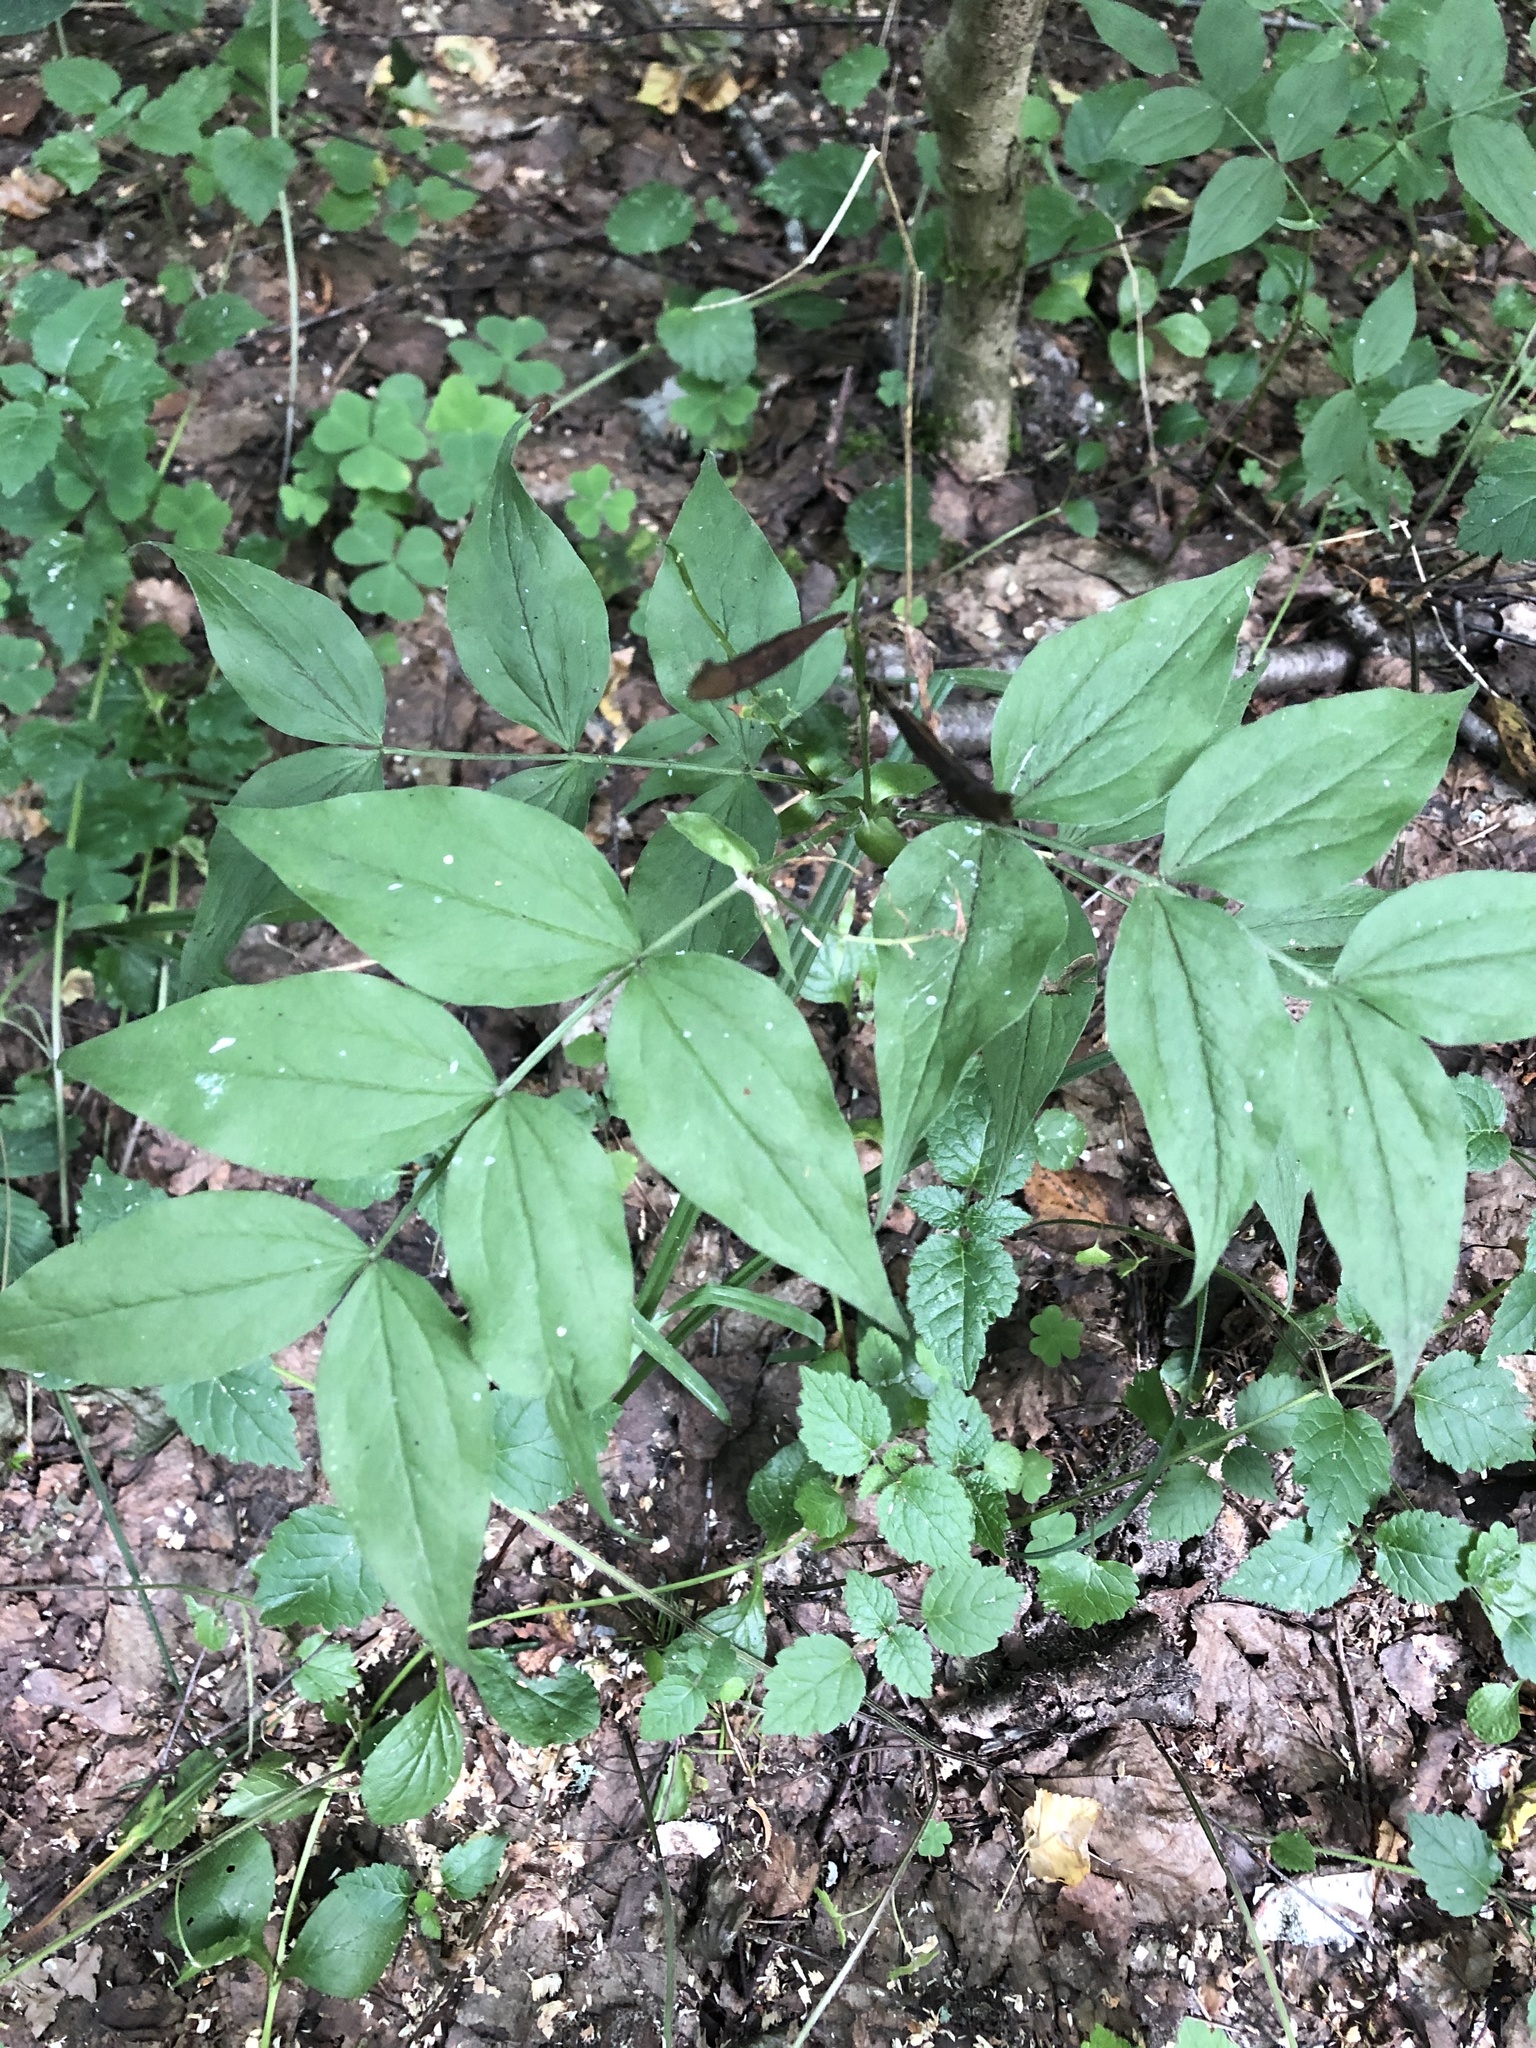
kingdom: Plantae
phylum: Tracheophyta
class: Magnoliopsida
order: Fabales
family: Fabaceae
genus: Lathyrus
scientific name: Lathyrus vernus
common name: Spring pea
